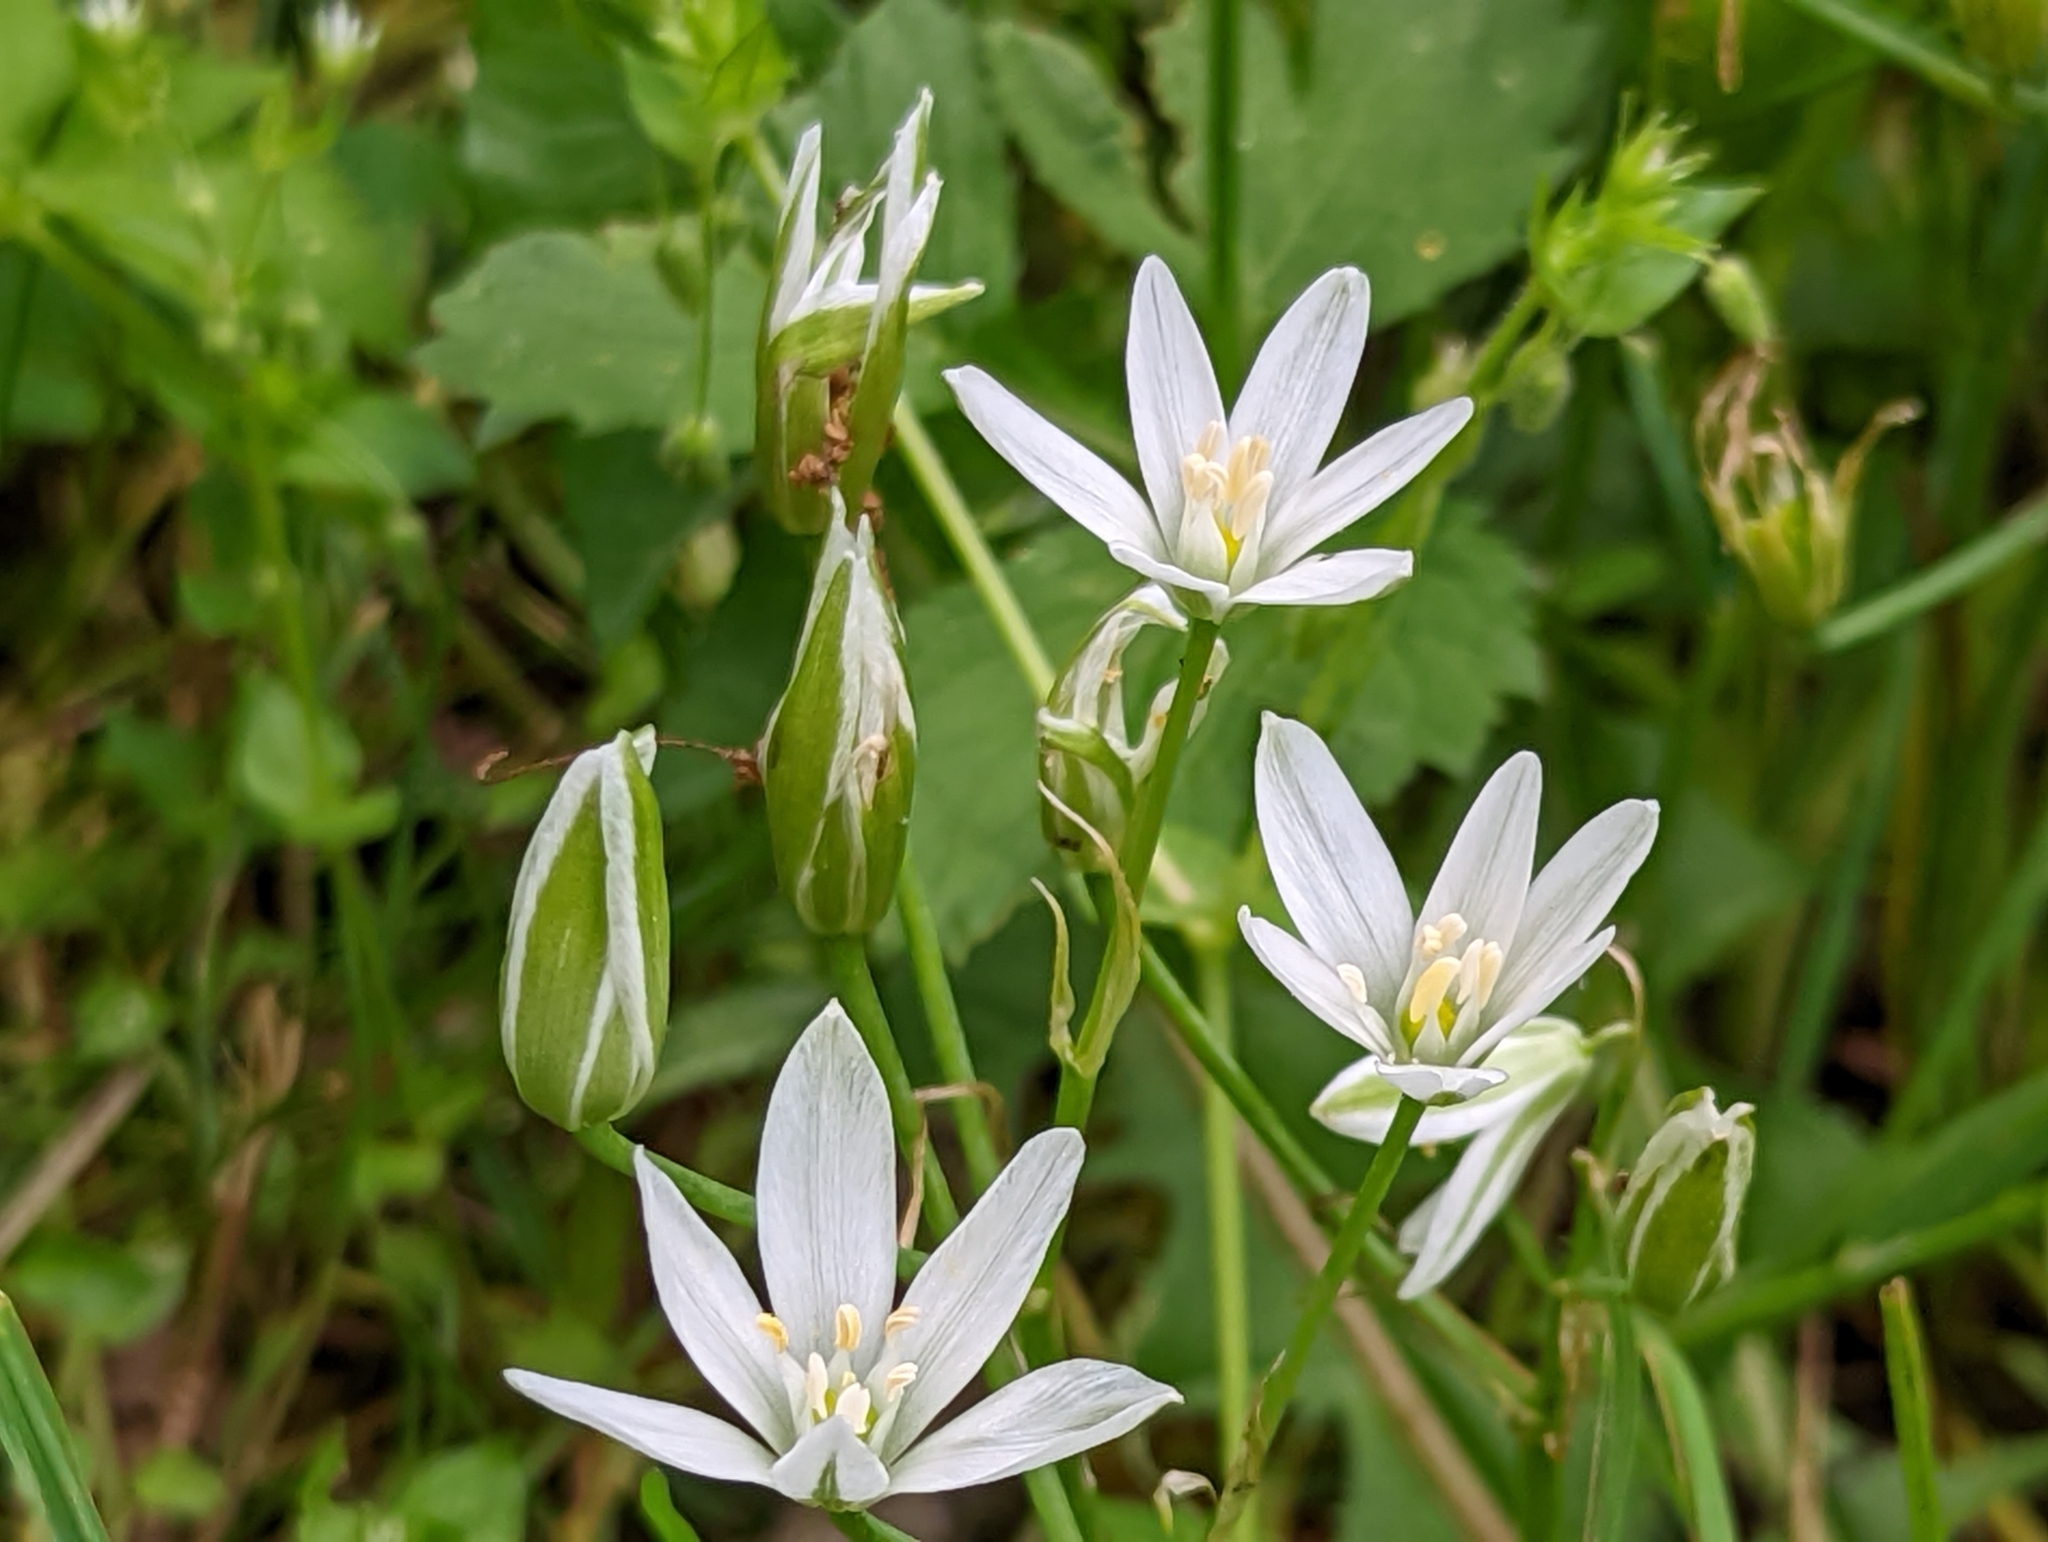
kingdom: Plantae
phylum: Tracheophyta
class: Liliopsida
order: Asparagales
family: Asparagaceae
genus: Ornithogalum
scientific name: Ornithogalum umbellatum
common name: Garden star-of-bethlehem
